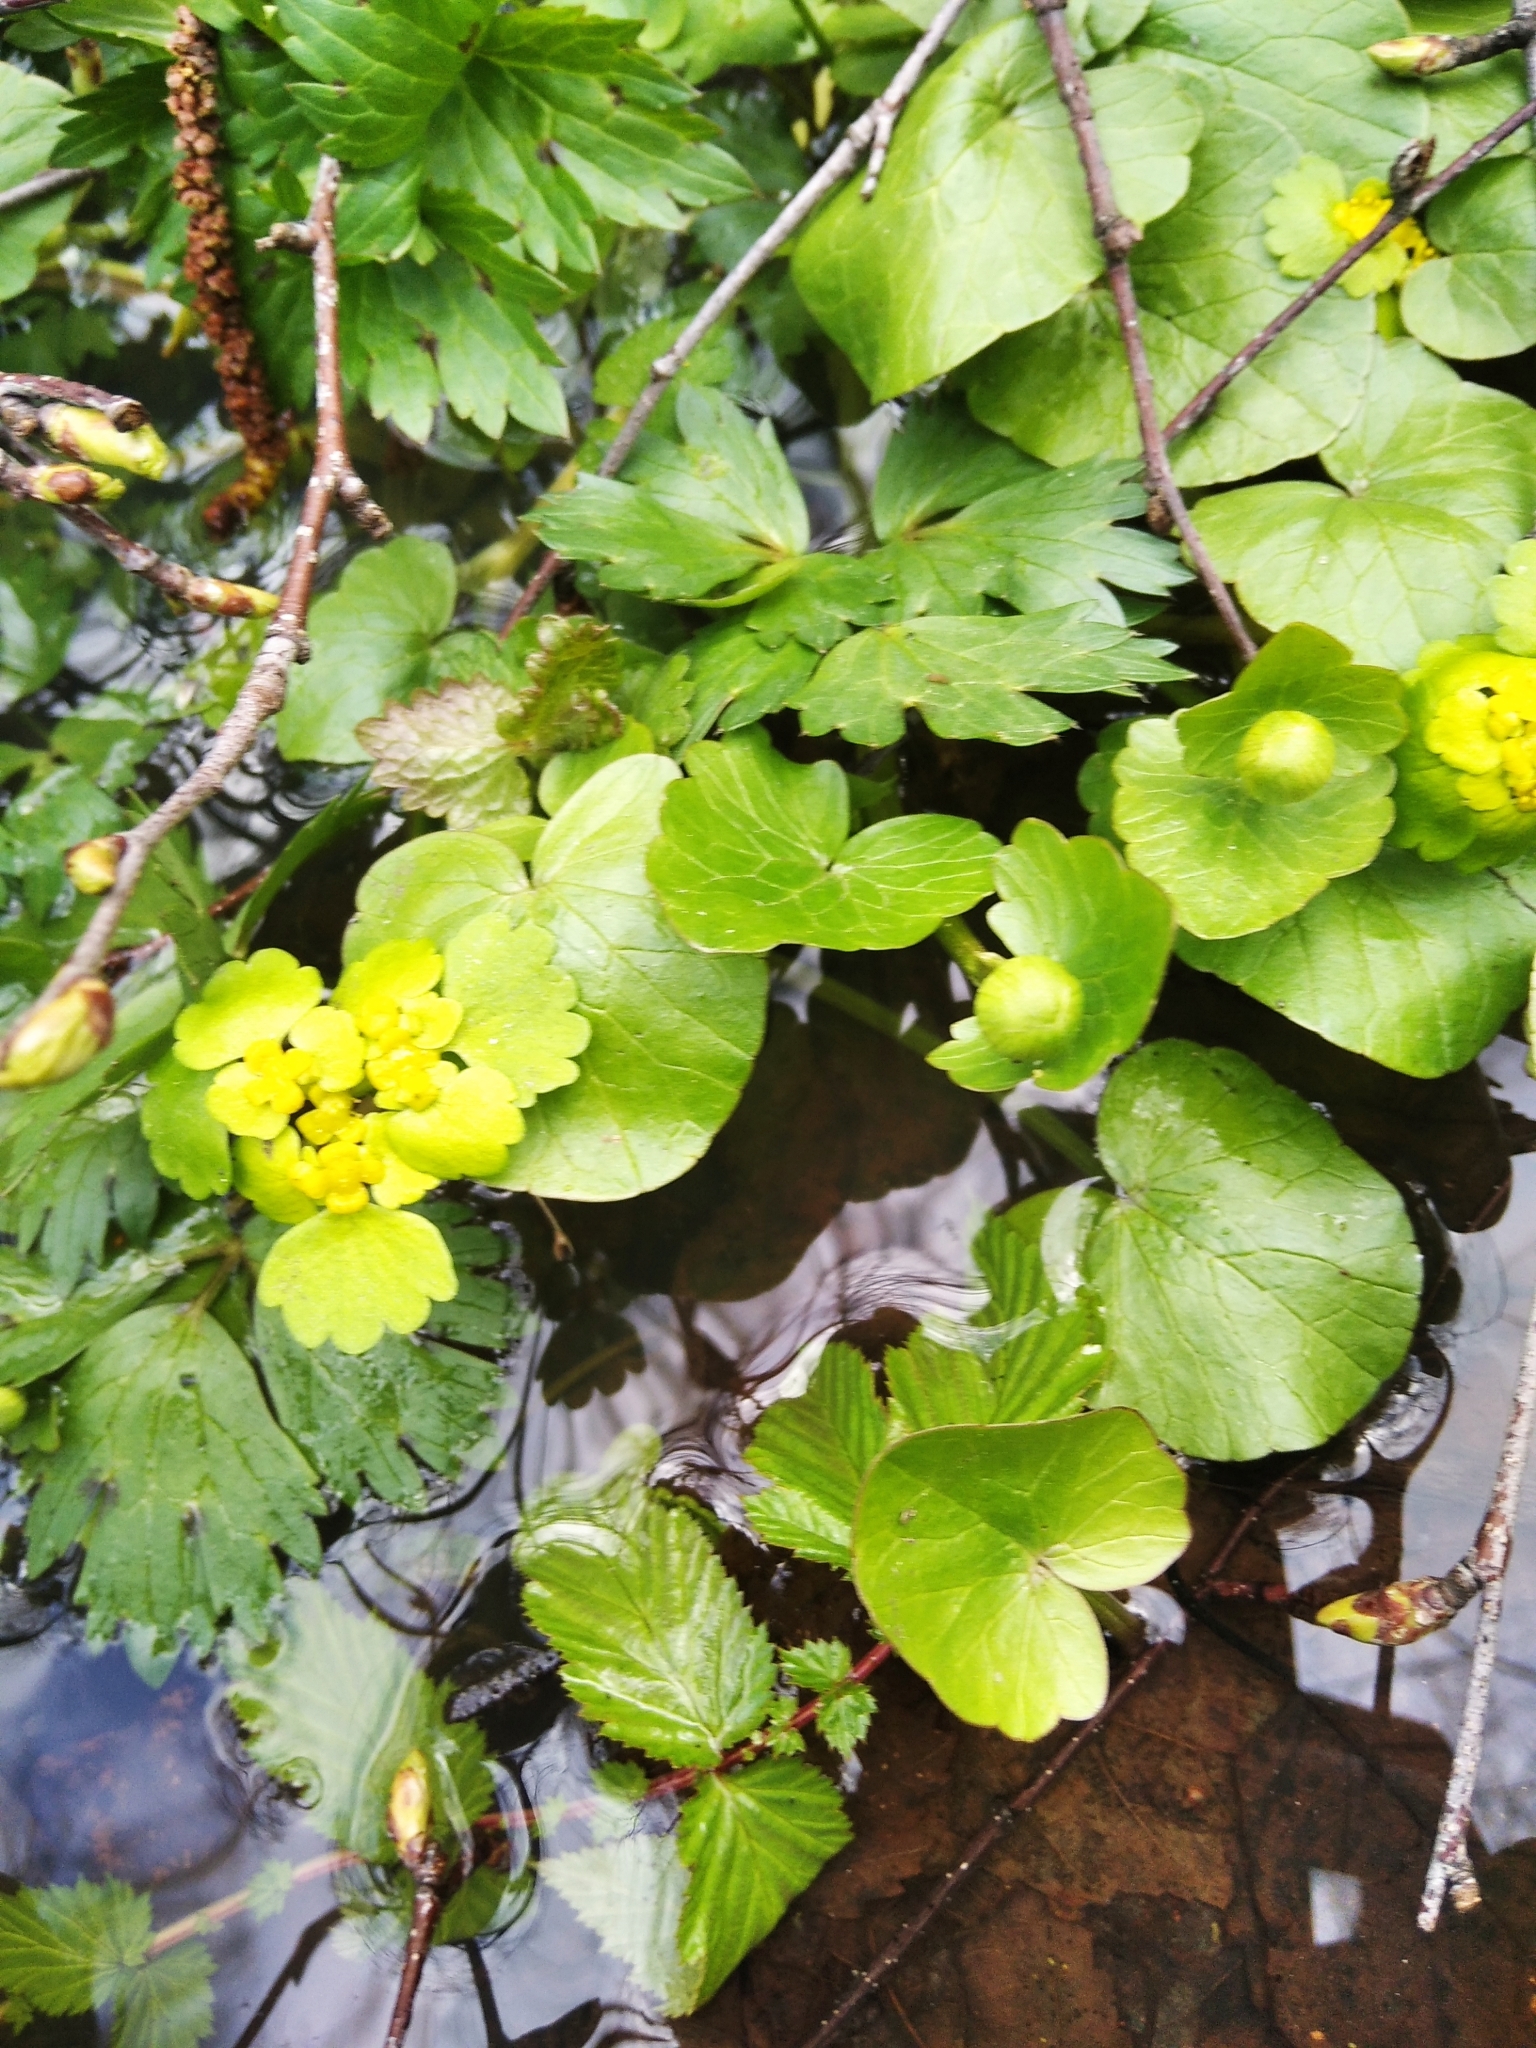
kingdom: Plantae
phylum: Tracheophyta
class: Magnoliopsida
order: Saxifragales
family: Saxifragaceae
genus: Chrysosplenium
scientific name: Chrysosplenium alternifolium
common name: Alternate-leaved golden-saxifrage
